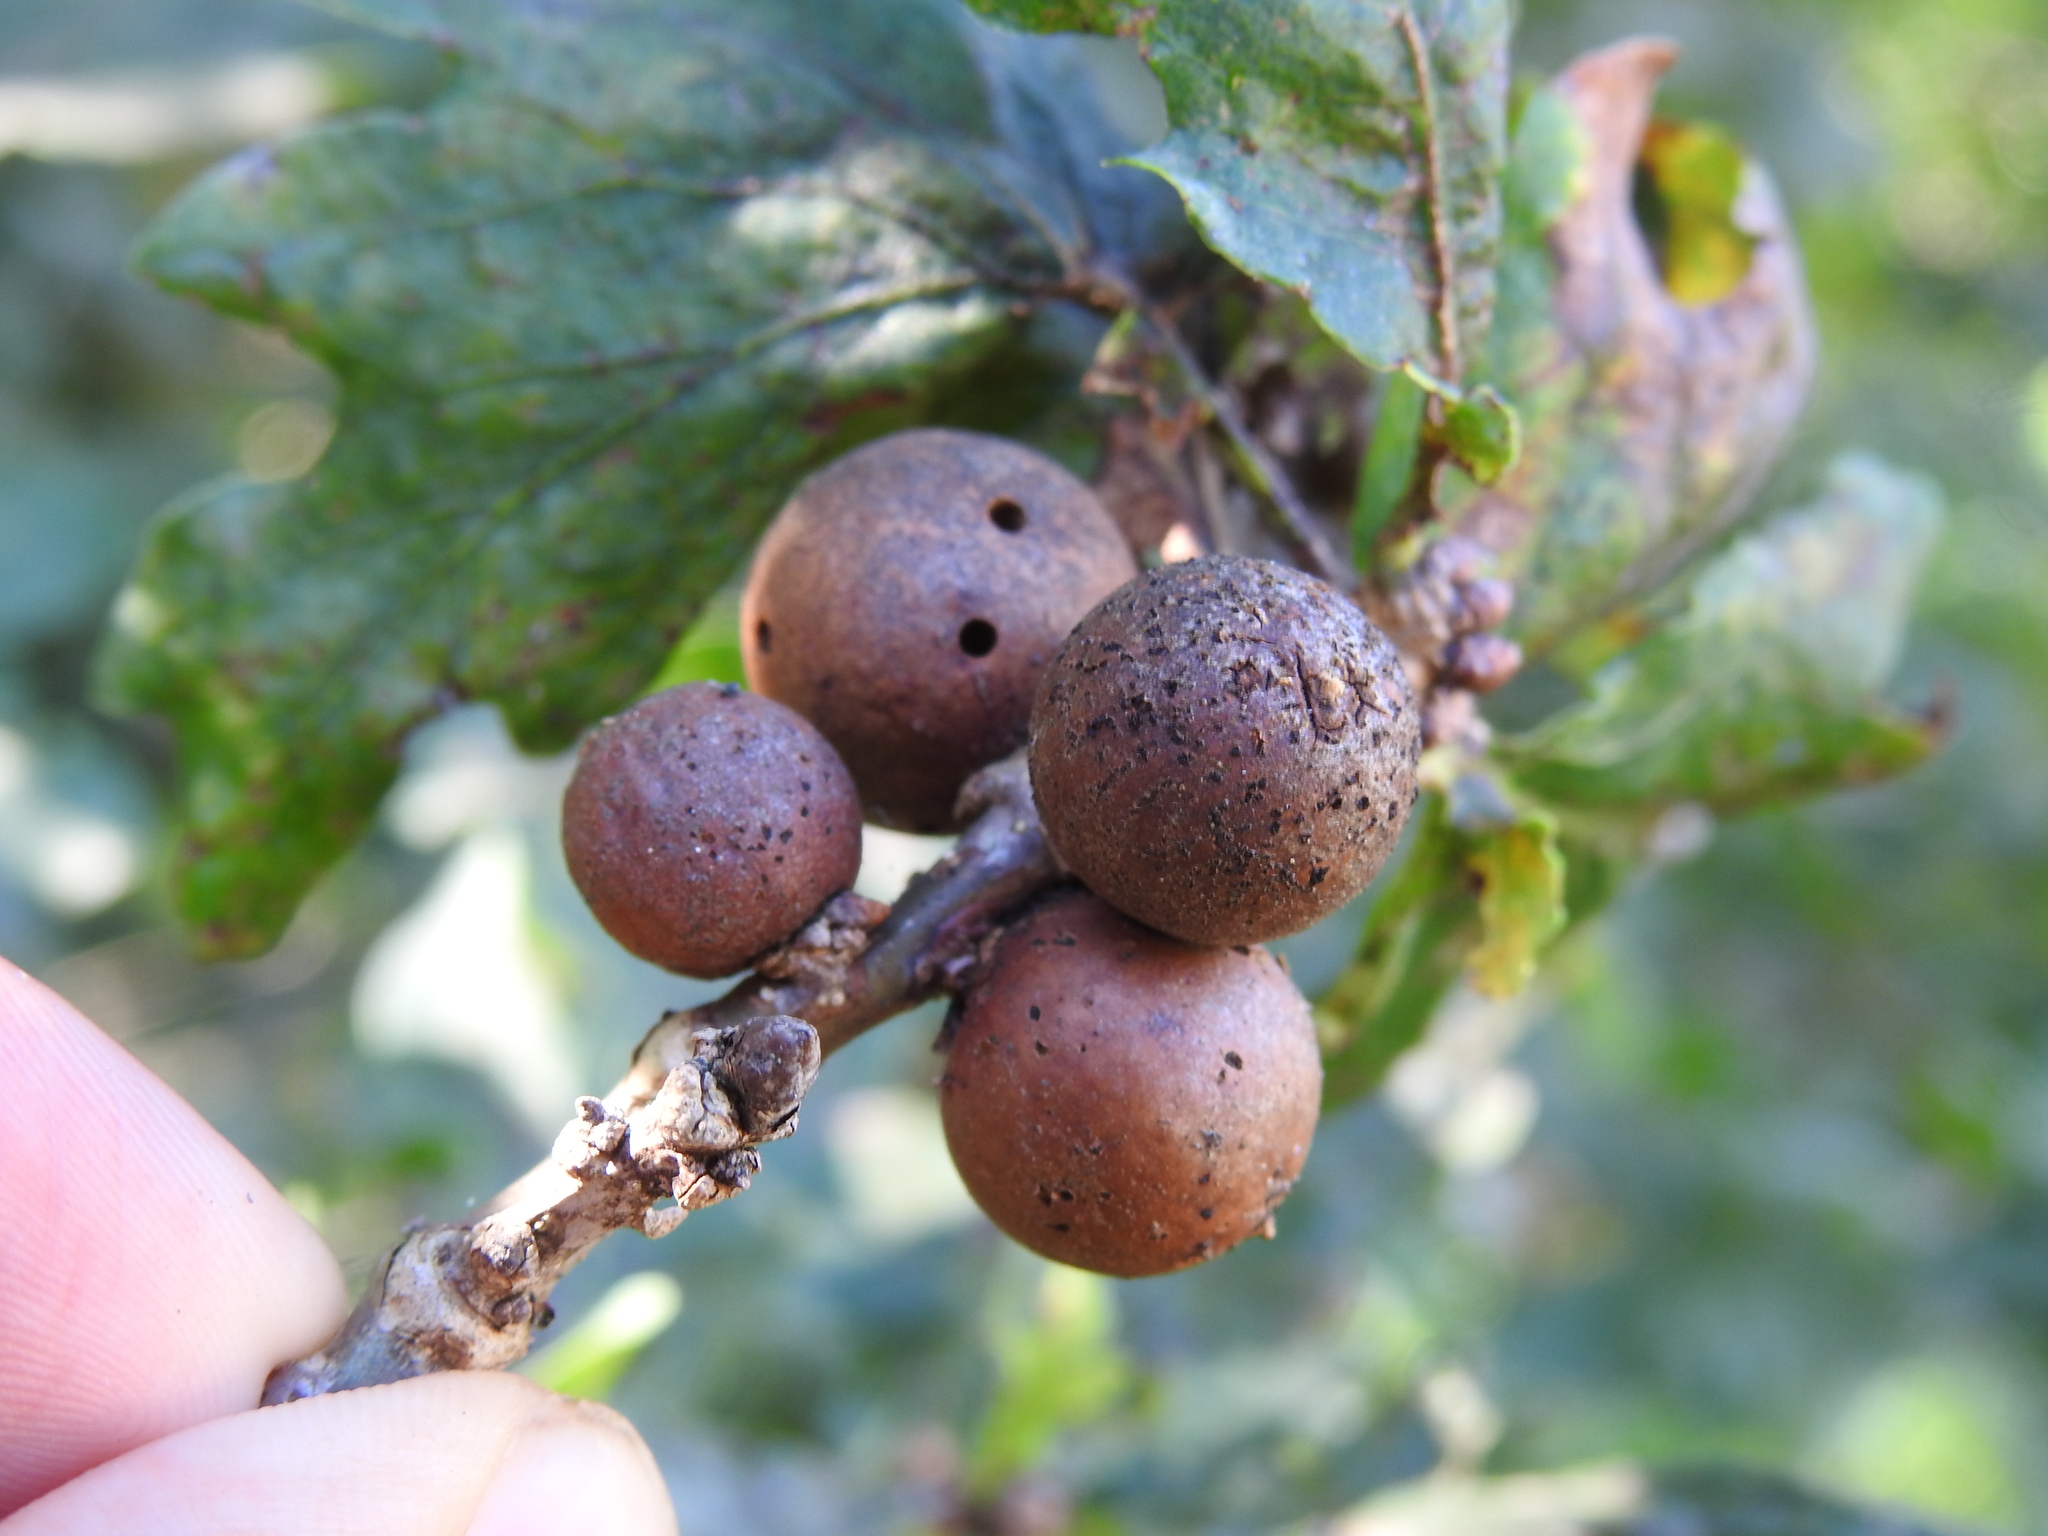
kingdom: Animalia
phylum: Arthropoda
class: Insecta
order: Hymenoptera
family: Cynipidae
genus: Andricus
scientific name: Andricus kollari
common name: Marble gall
